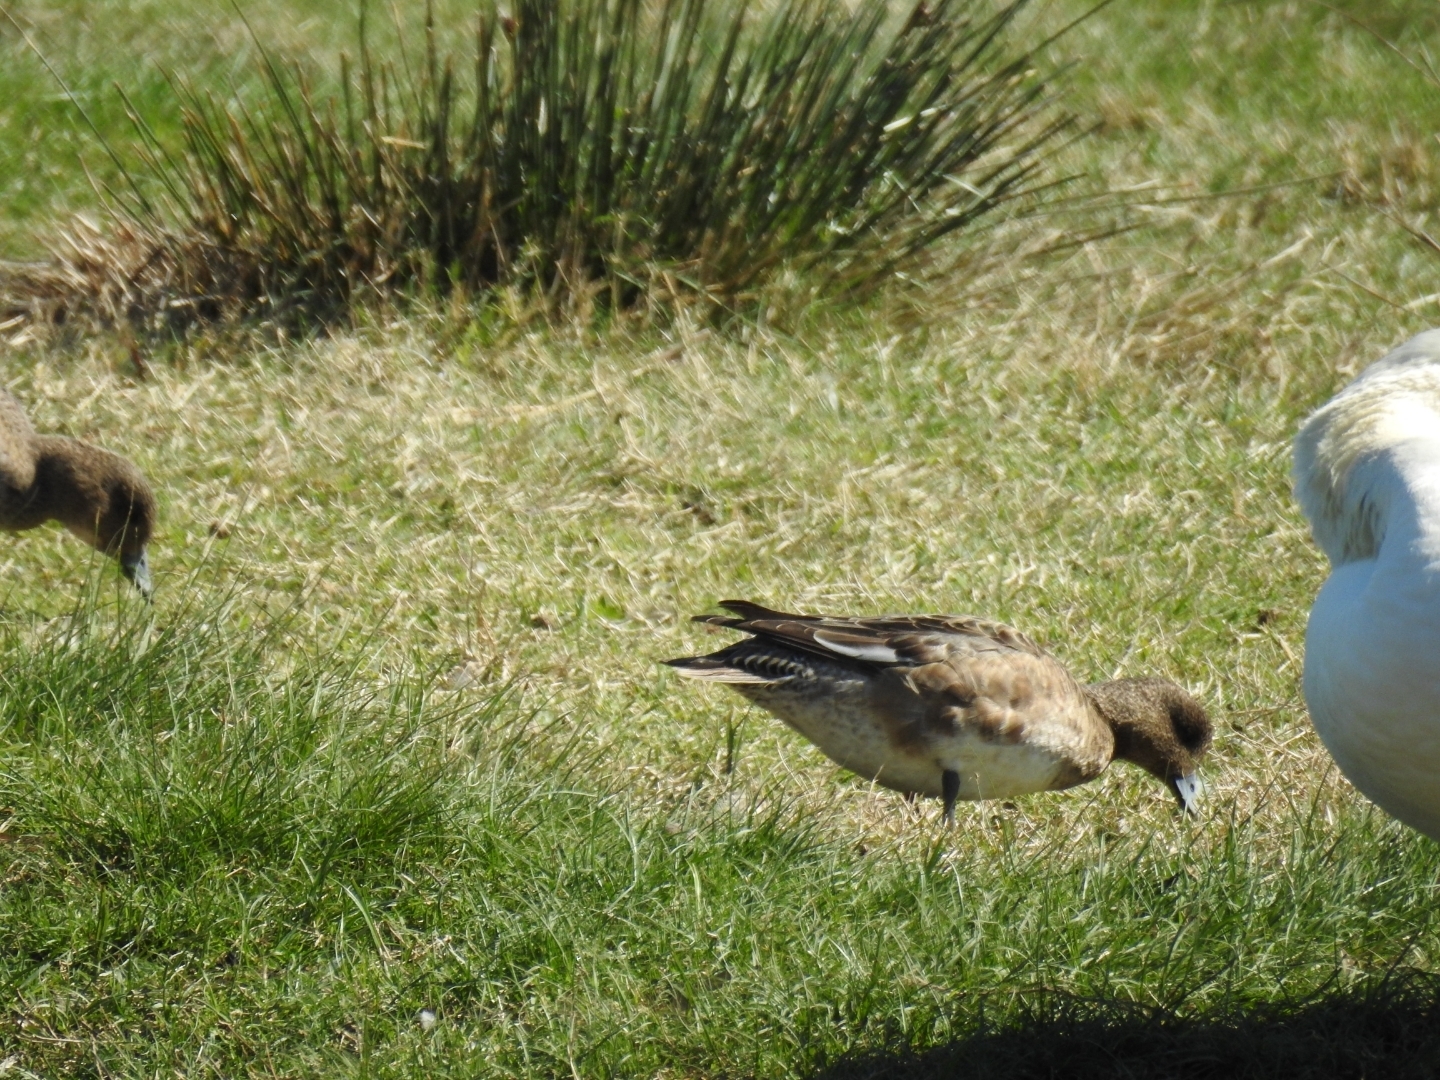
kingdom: Animalia
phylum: Chordata
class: Aves
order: Anseriformes
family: Anatidae
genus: Mareca
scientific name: Mareca penelope
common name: Eurasian wigeon
